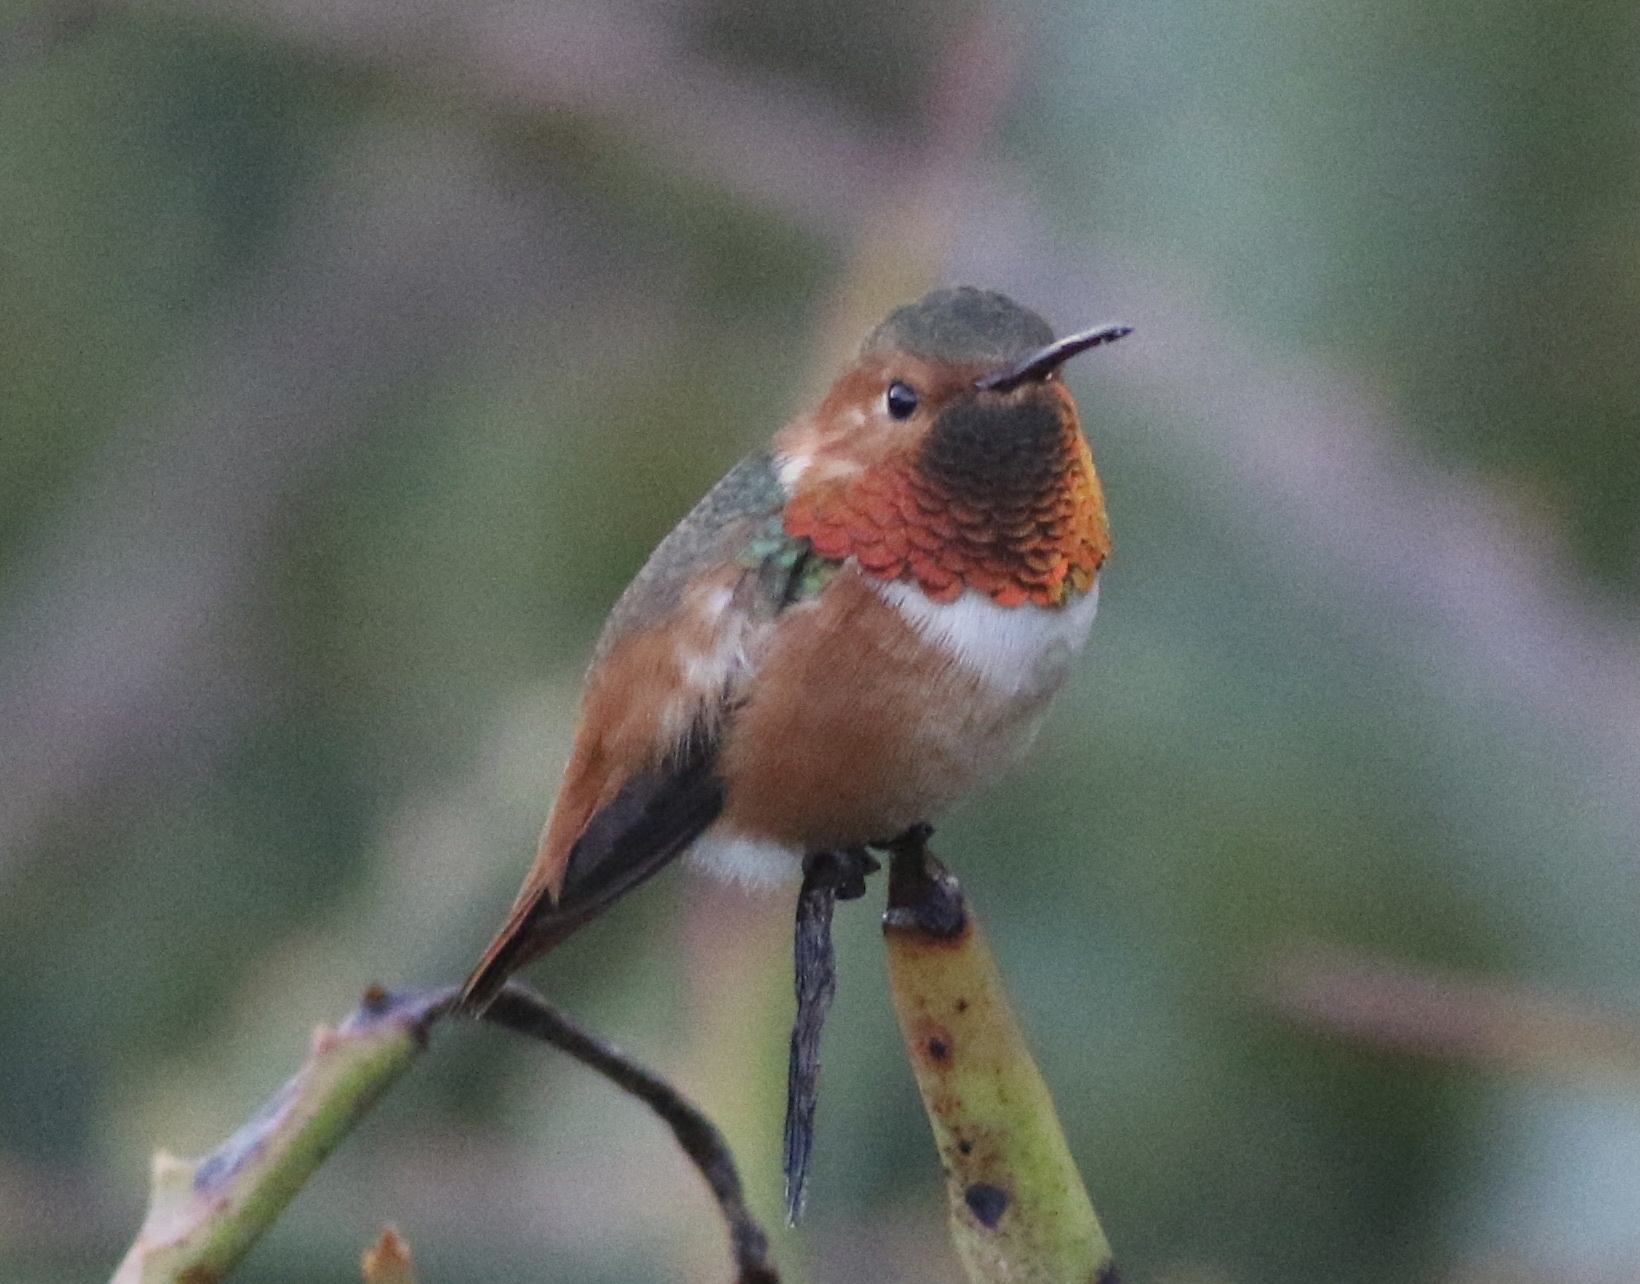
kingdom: Animalia
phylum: Chordata
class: Aves
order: Apodiformes
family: Trochilidae
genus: Selasphorus
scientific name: Selasphorus sasin
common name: Allen's hummingbird
